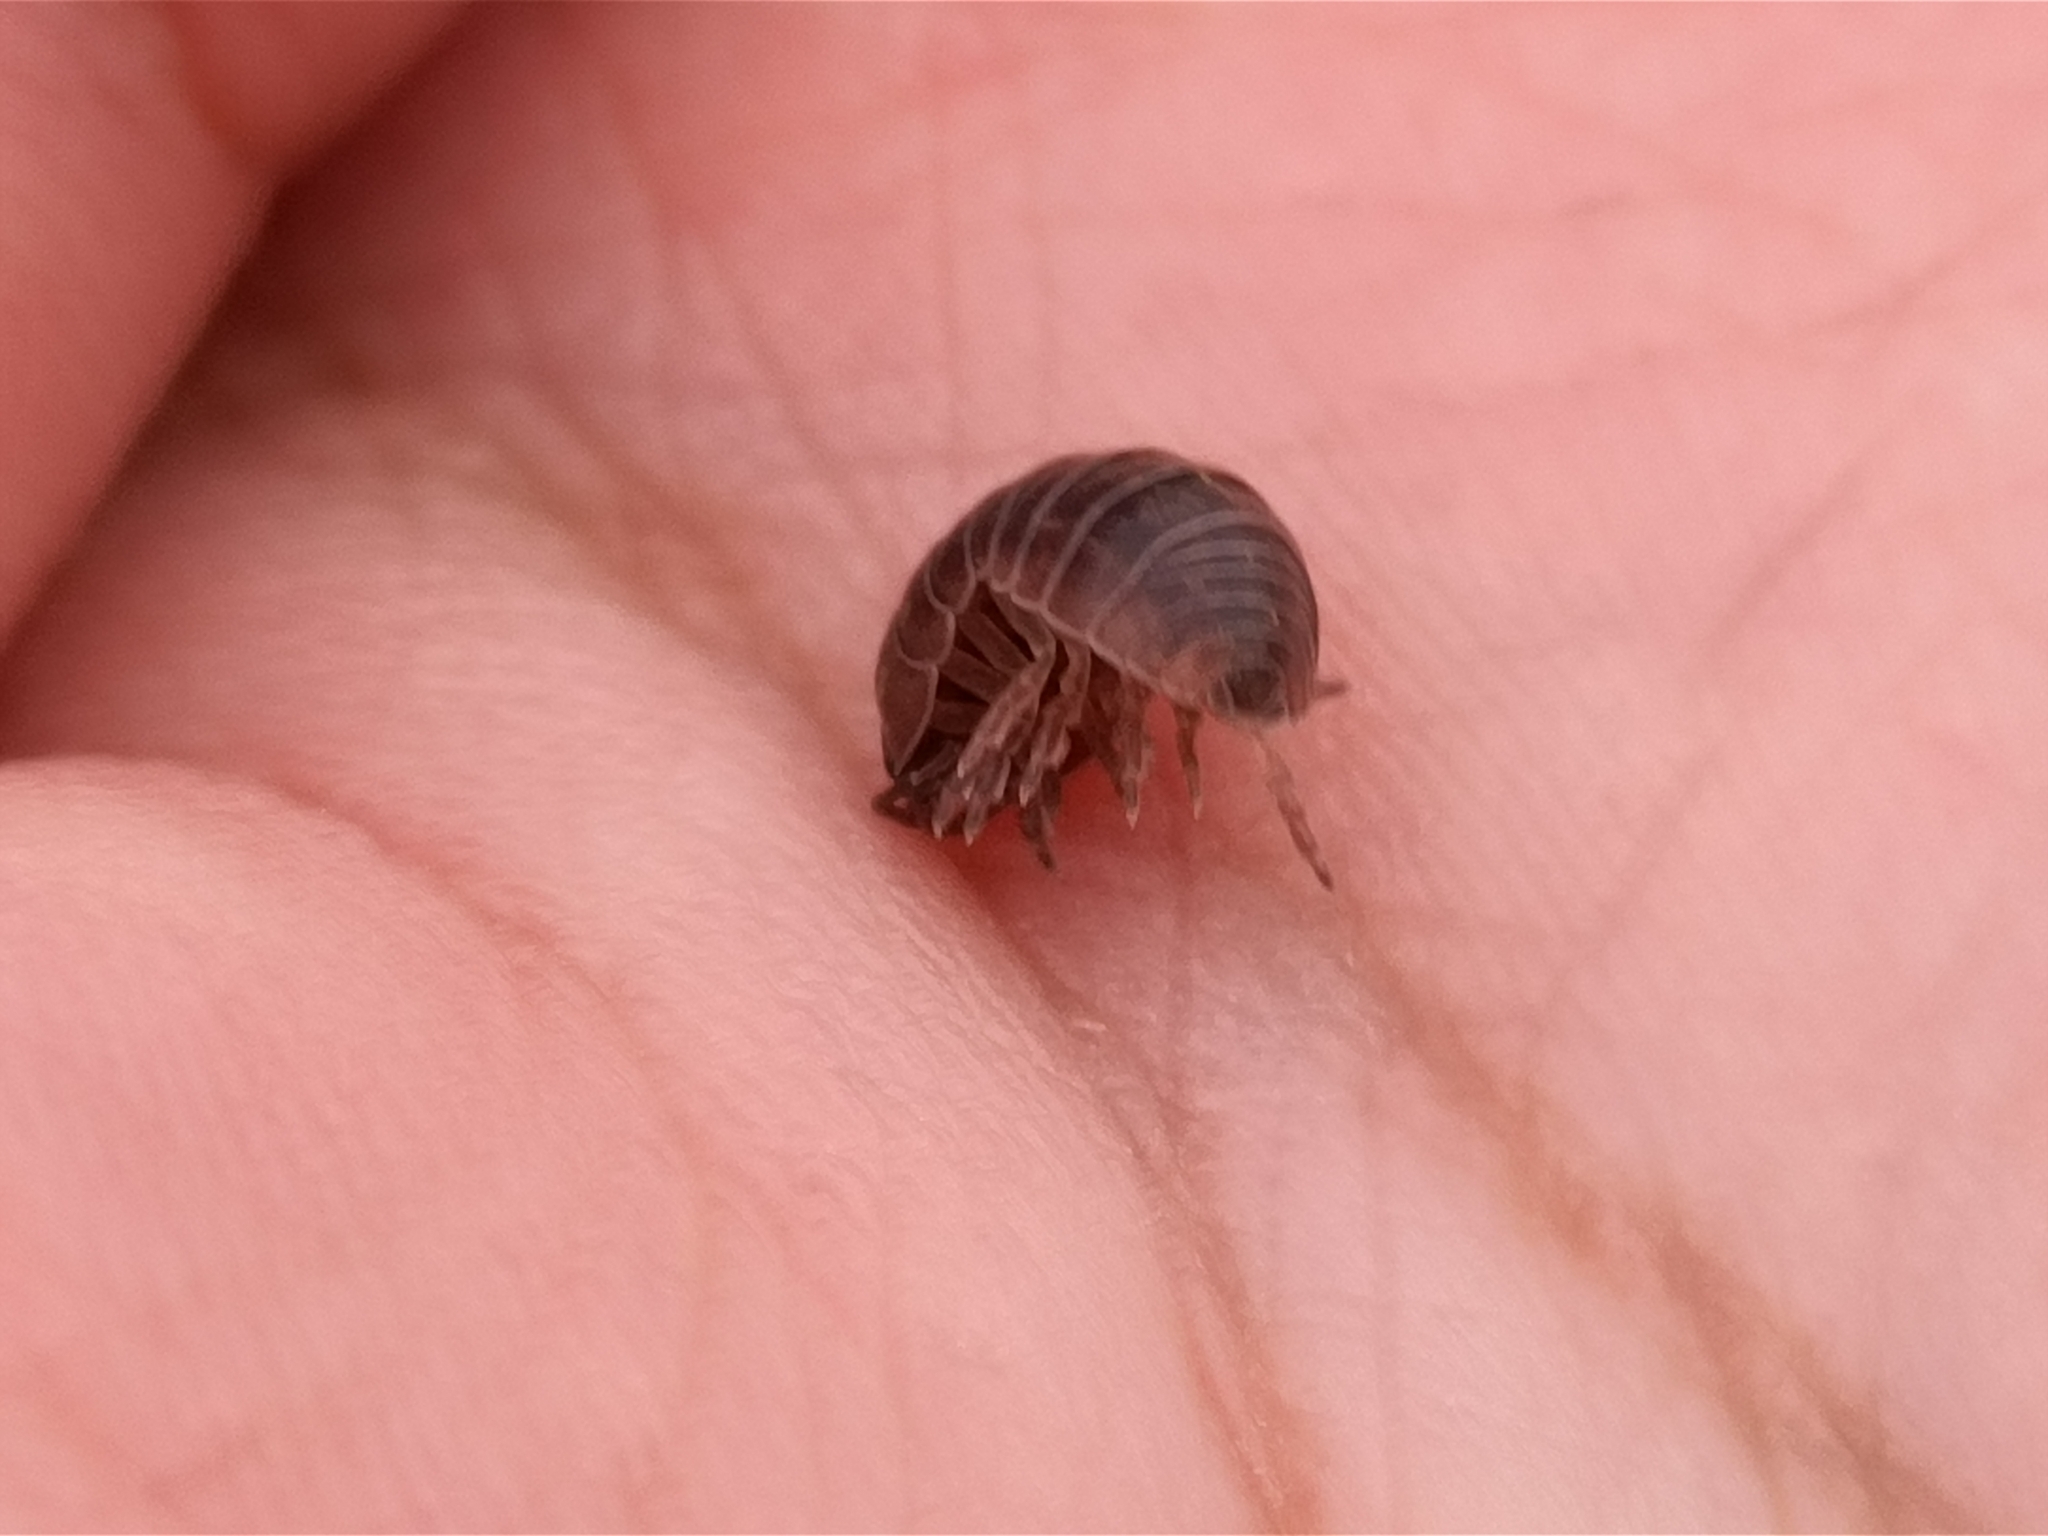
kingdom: Animalia
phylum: Arthropoda
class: Malacostraca
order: Isopoda
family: Armadillidiidae
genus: Armadillidium
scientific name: Armadillidium vulgare
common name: Common pill woodlouse
